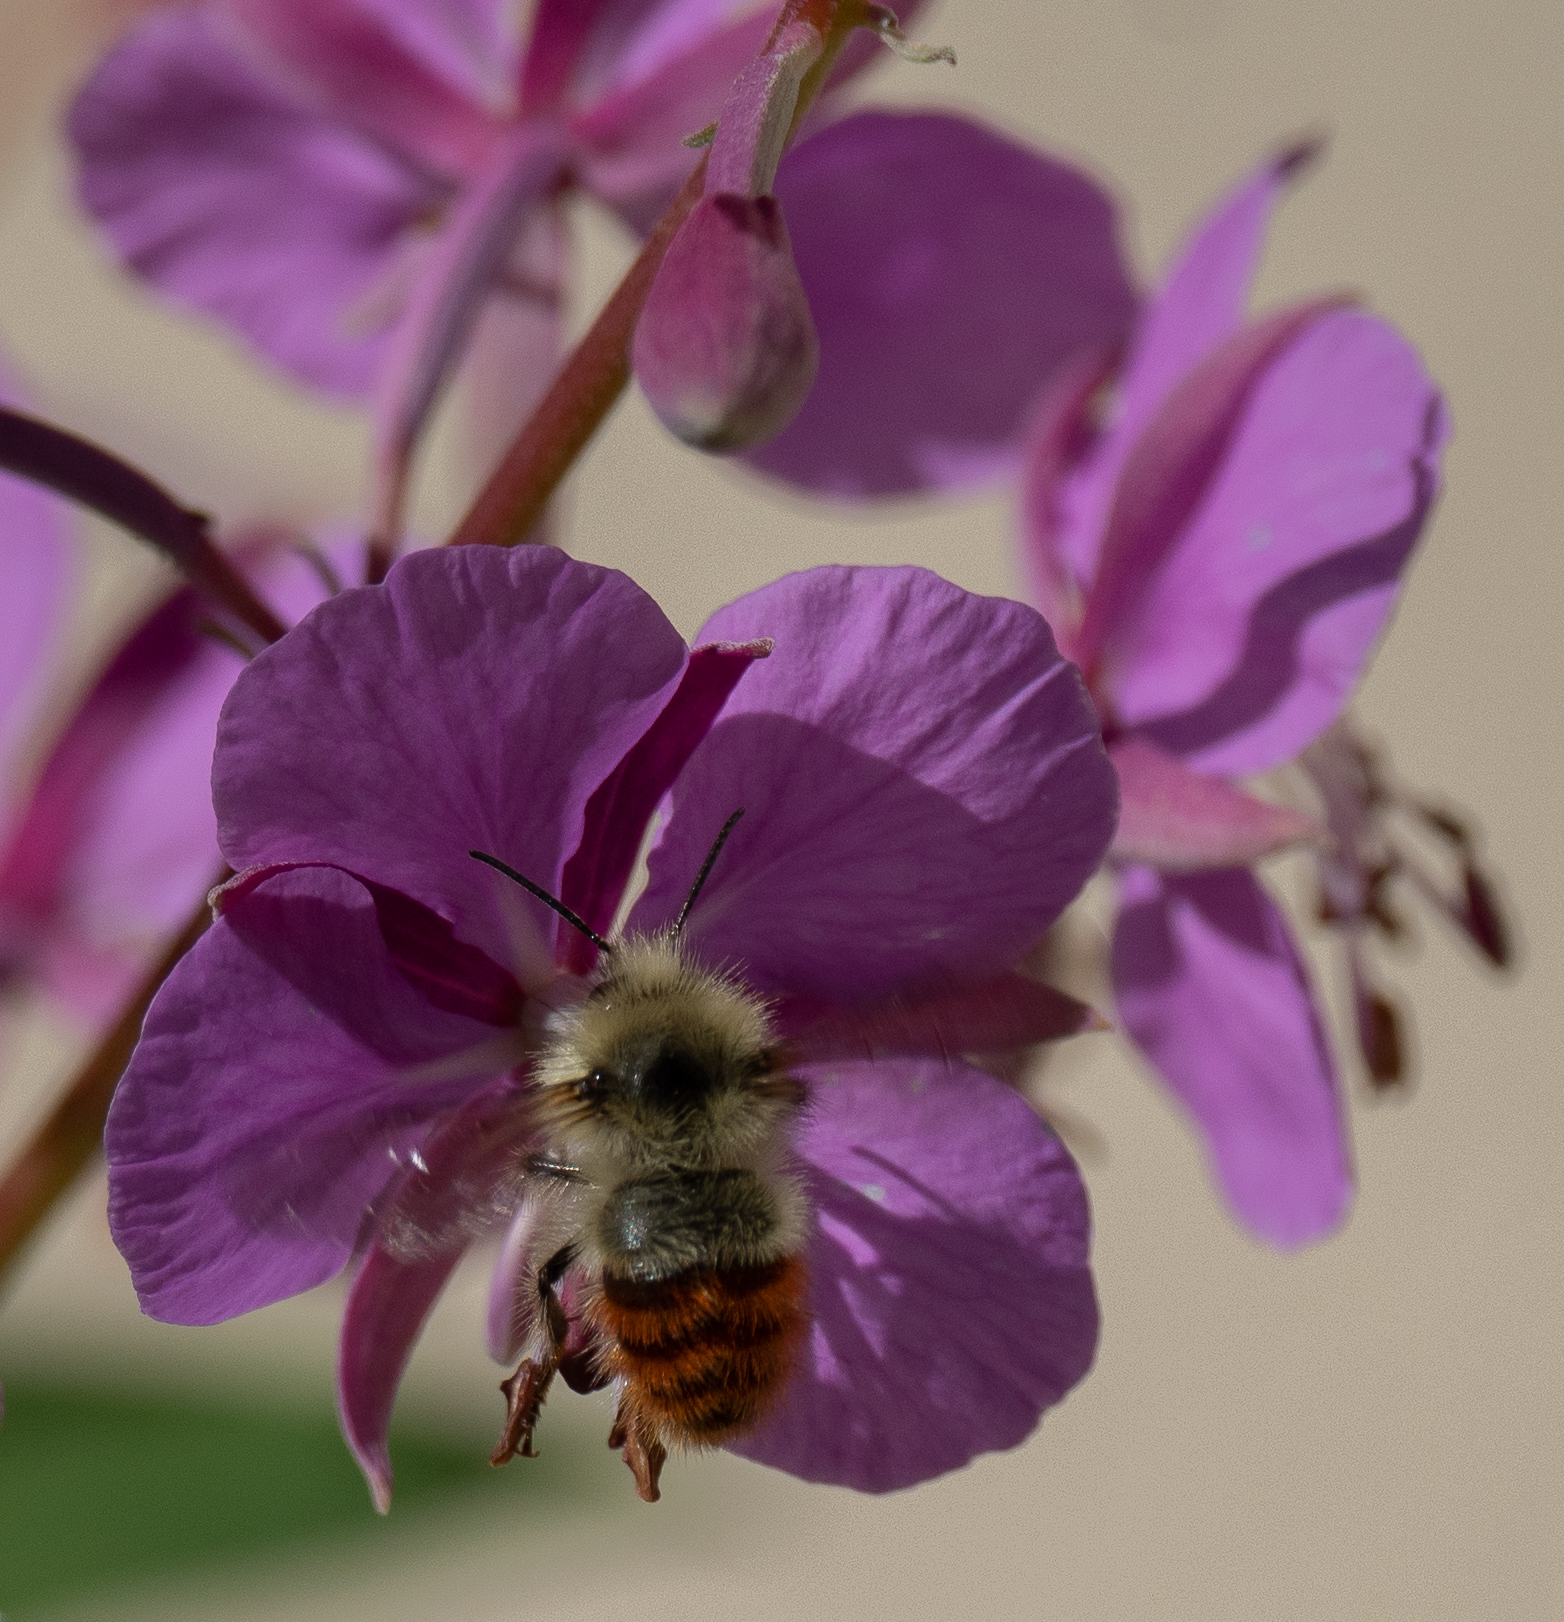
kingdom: Animalia
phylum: Arthropoda
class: Insecta
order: Hymenoptera
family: Apidae
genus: Bombus
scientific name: Bombus flavifrons
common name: Yellow head bumble bee
